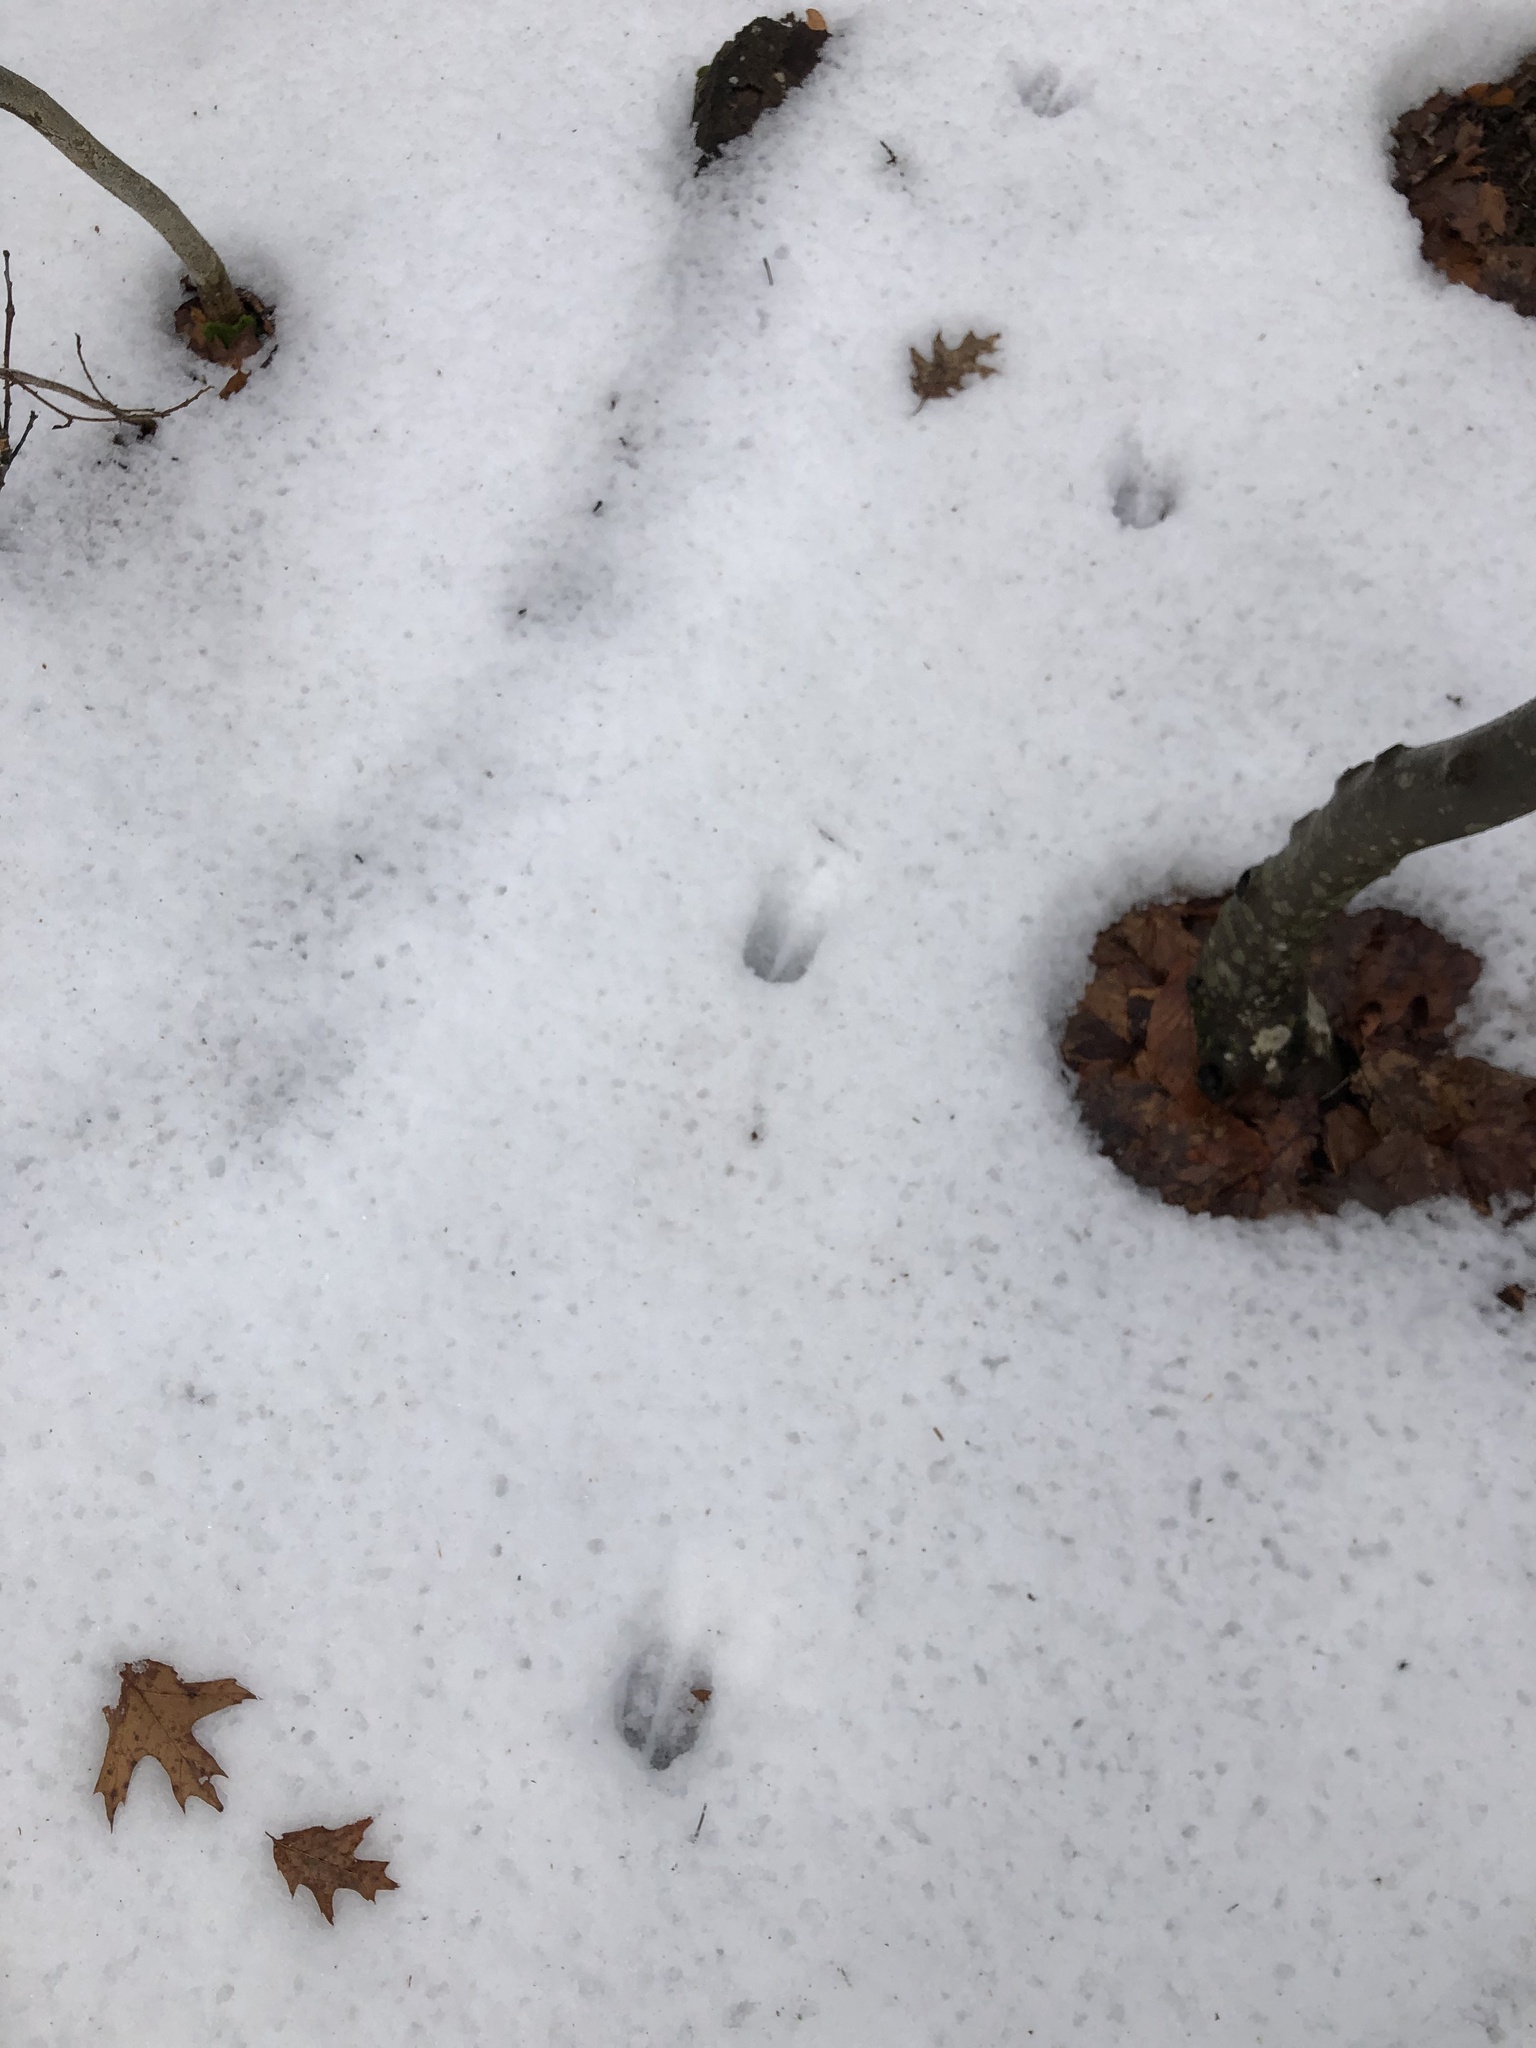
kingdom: Animalia
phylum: Chordata
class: Mammalia
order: Artiodactyla
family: Cervidae
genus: Odocoileus
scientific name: Odocoileus virginianus
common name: White-tailed deer
